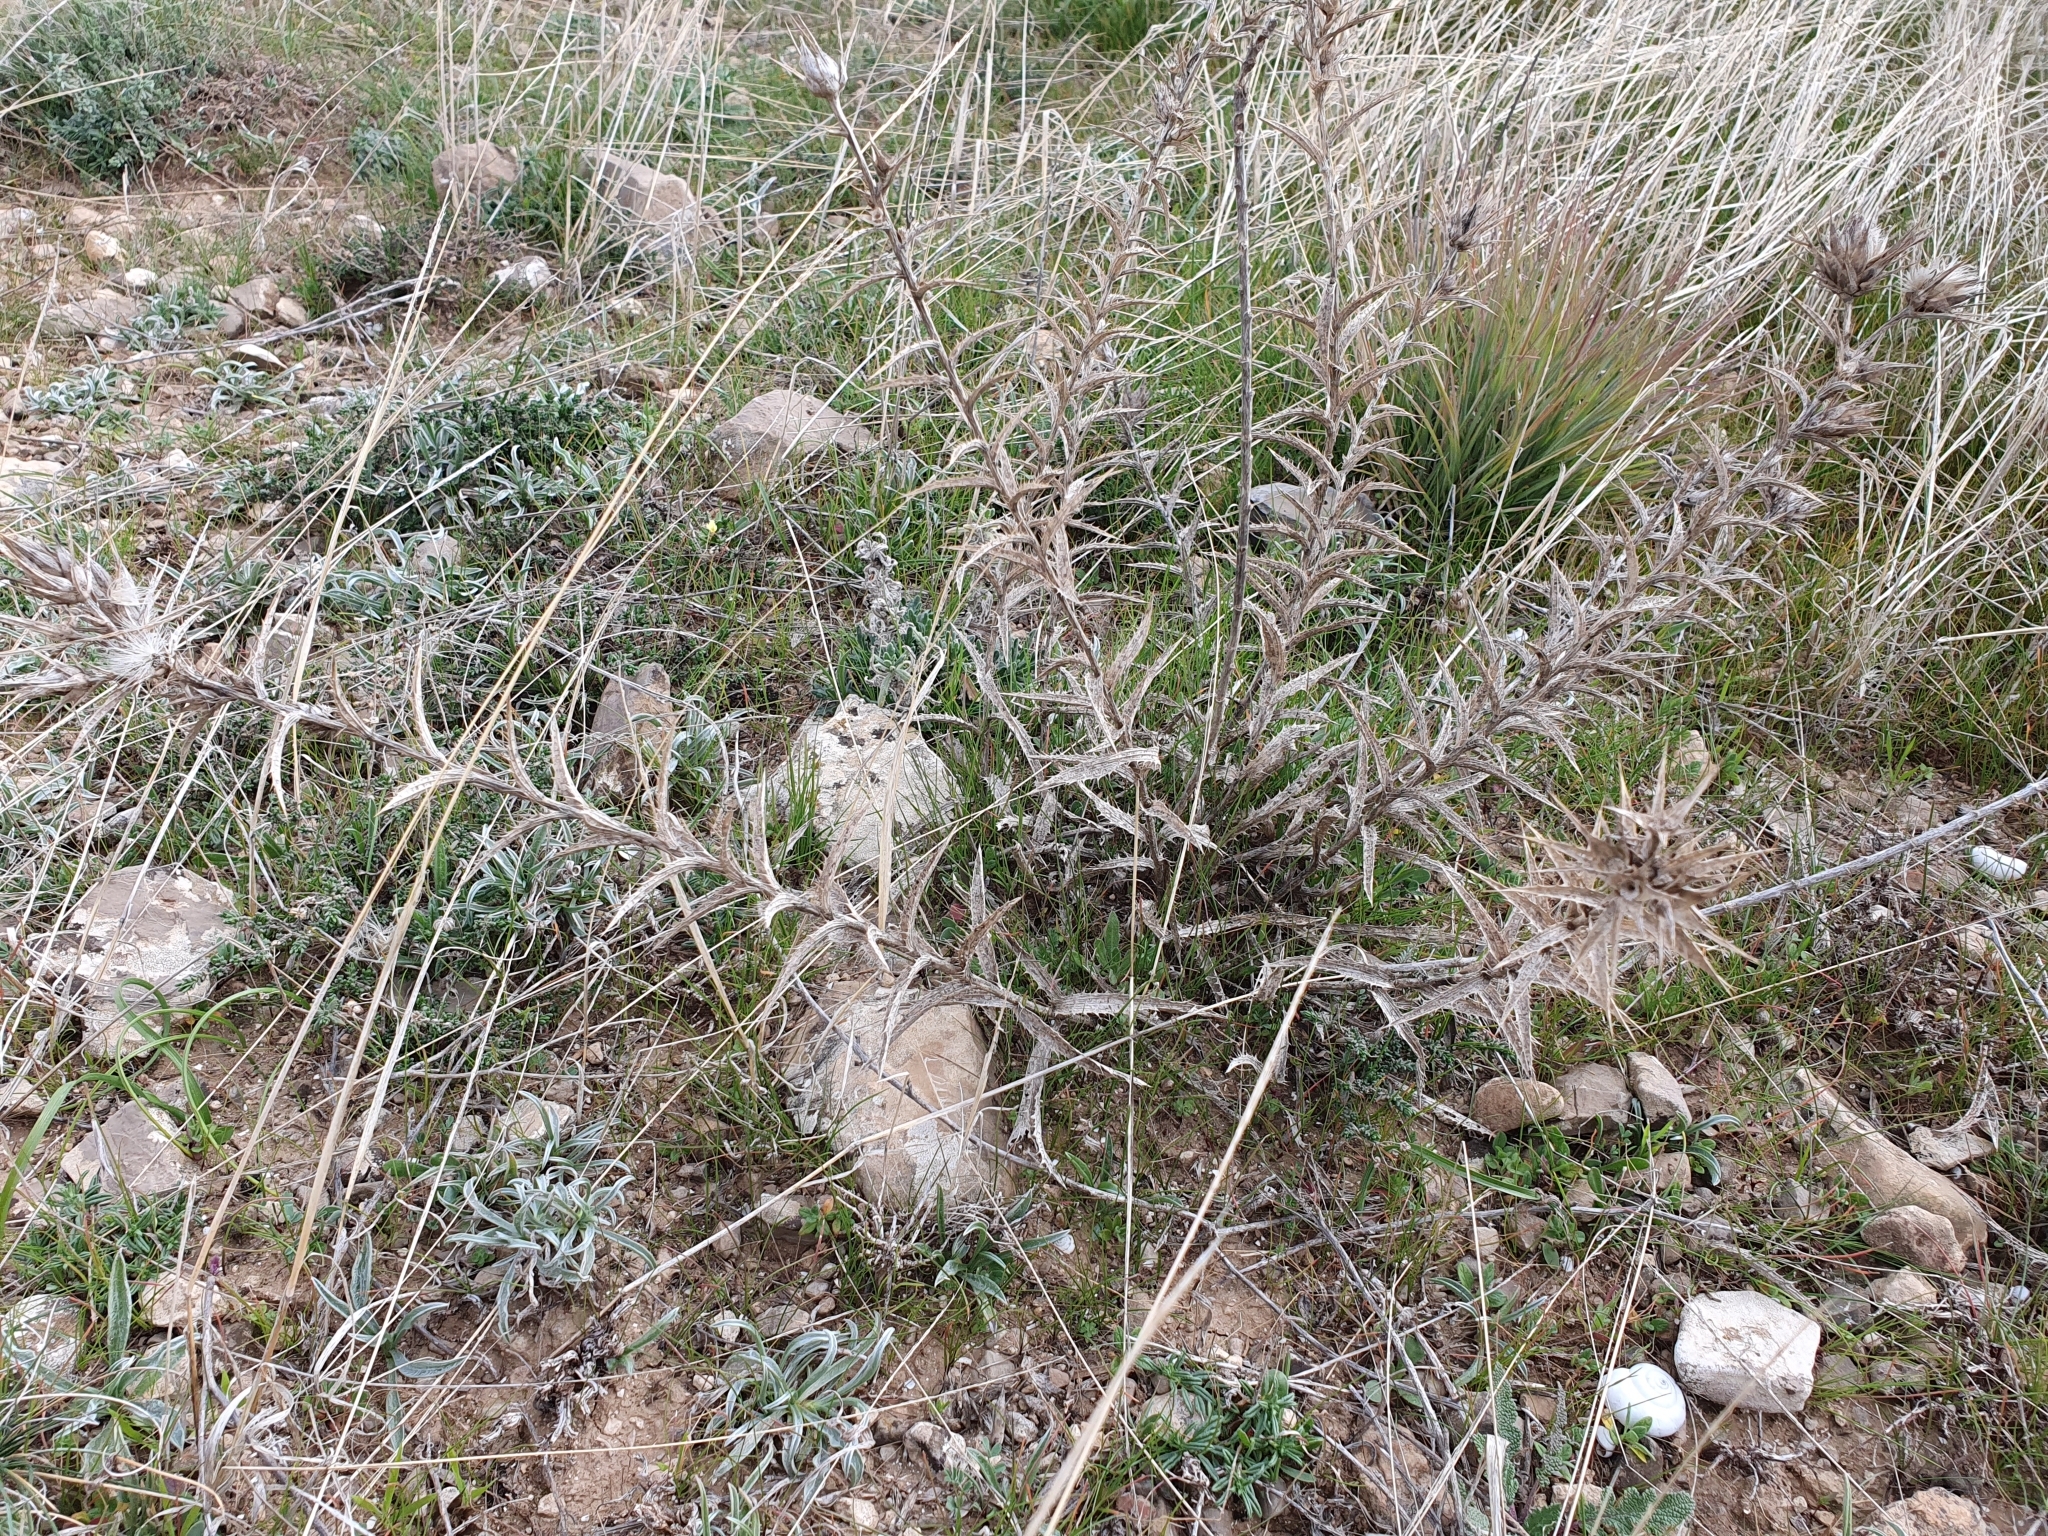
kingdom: Plantae
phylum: Tracheophyta
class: Magnoliopsida
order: Asterales
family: Asteraceae
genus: Carduncellus
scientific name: Carduncellus pectinatus
